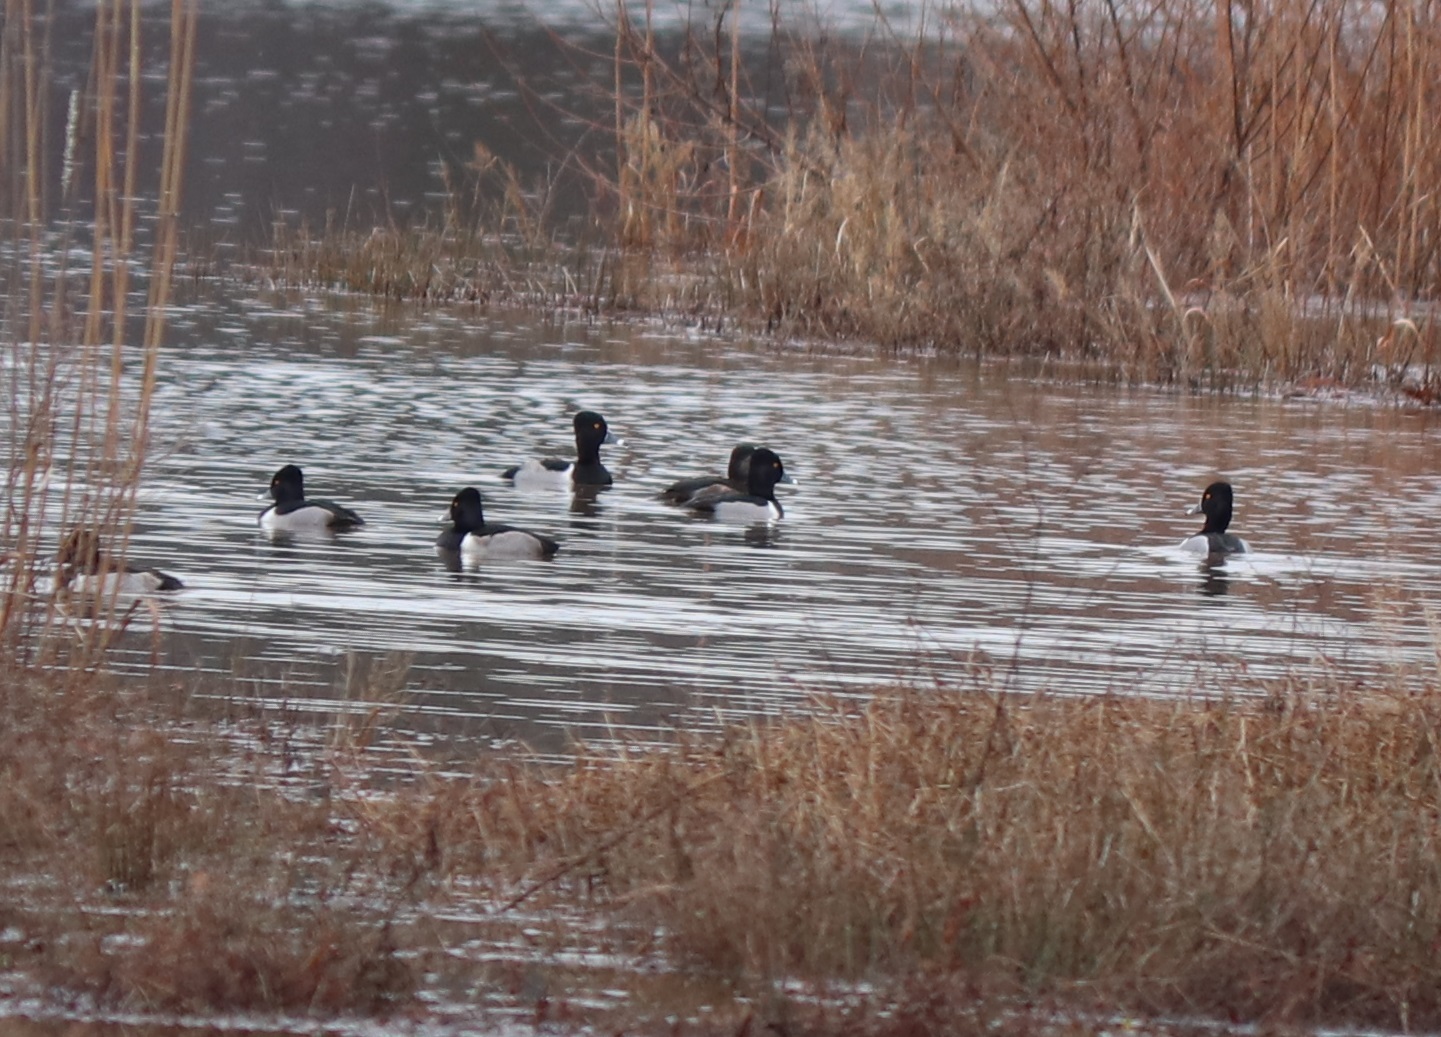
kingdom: Animalia
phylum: Chordata
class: Aves
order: Anseriformes
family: Anatidae
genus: Aythya
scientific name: Aythya collaris
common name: Ring-necked duck
